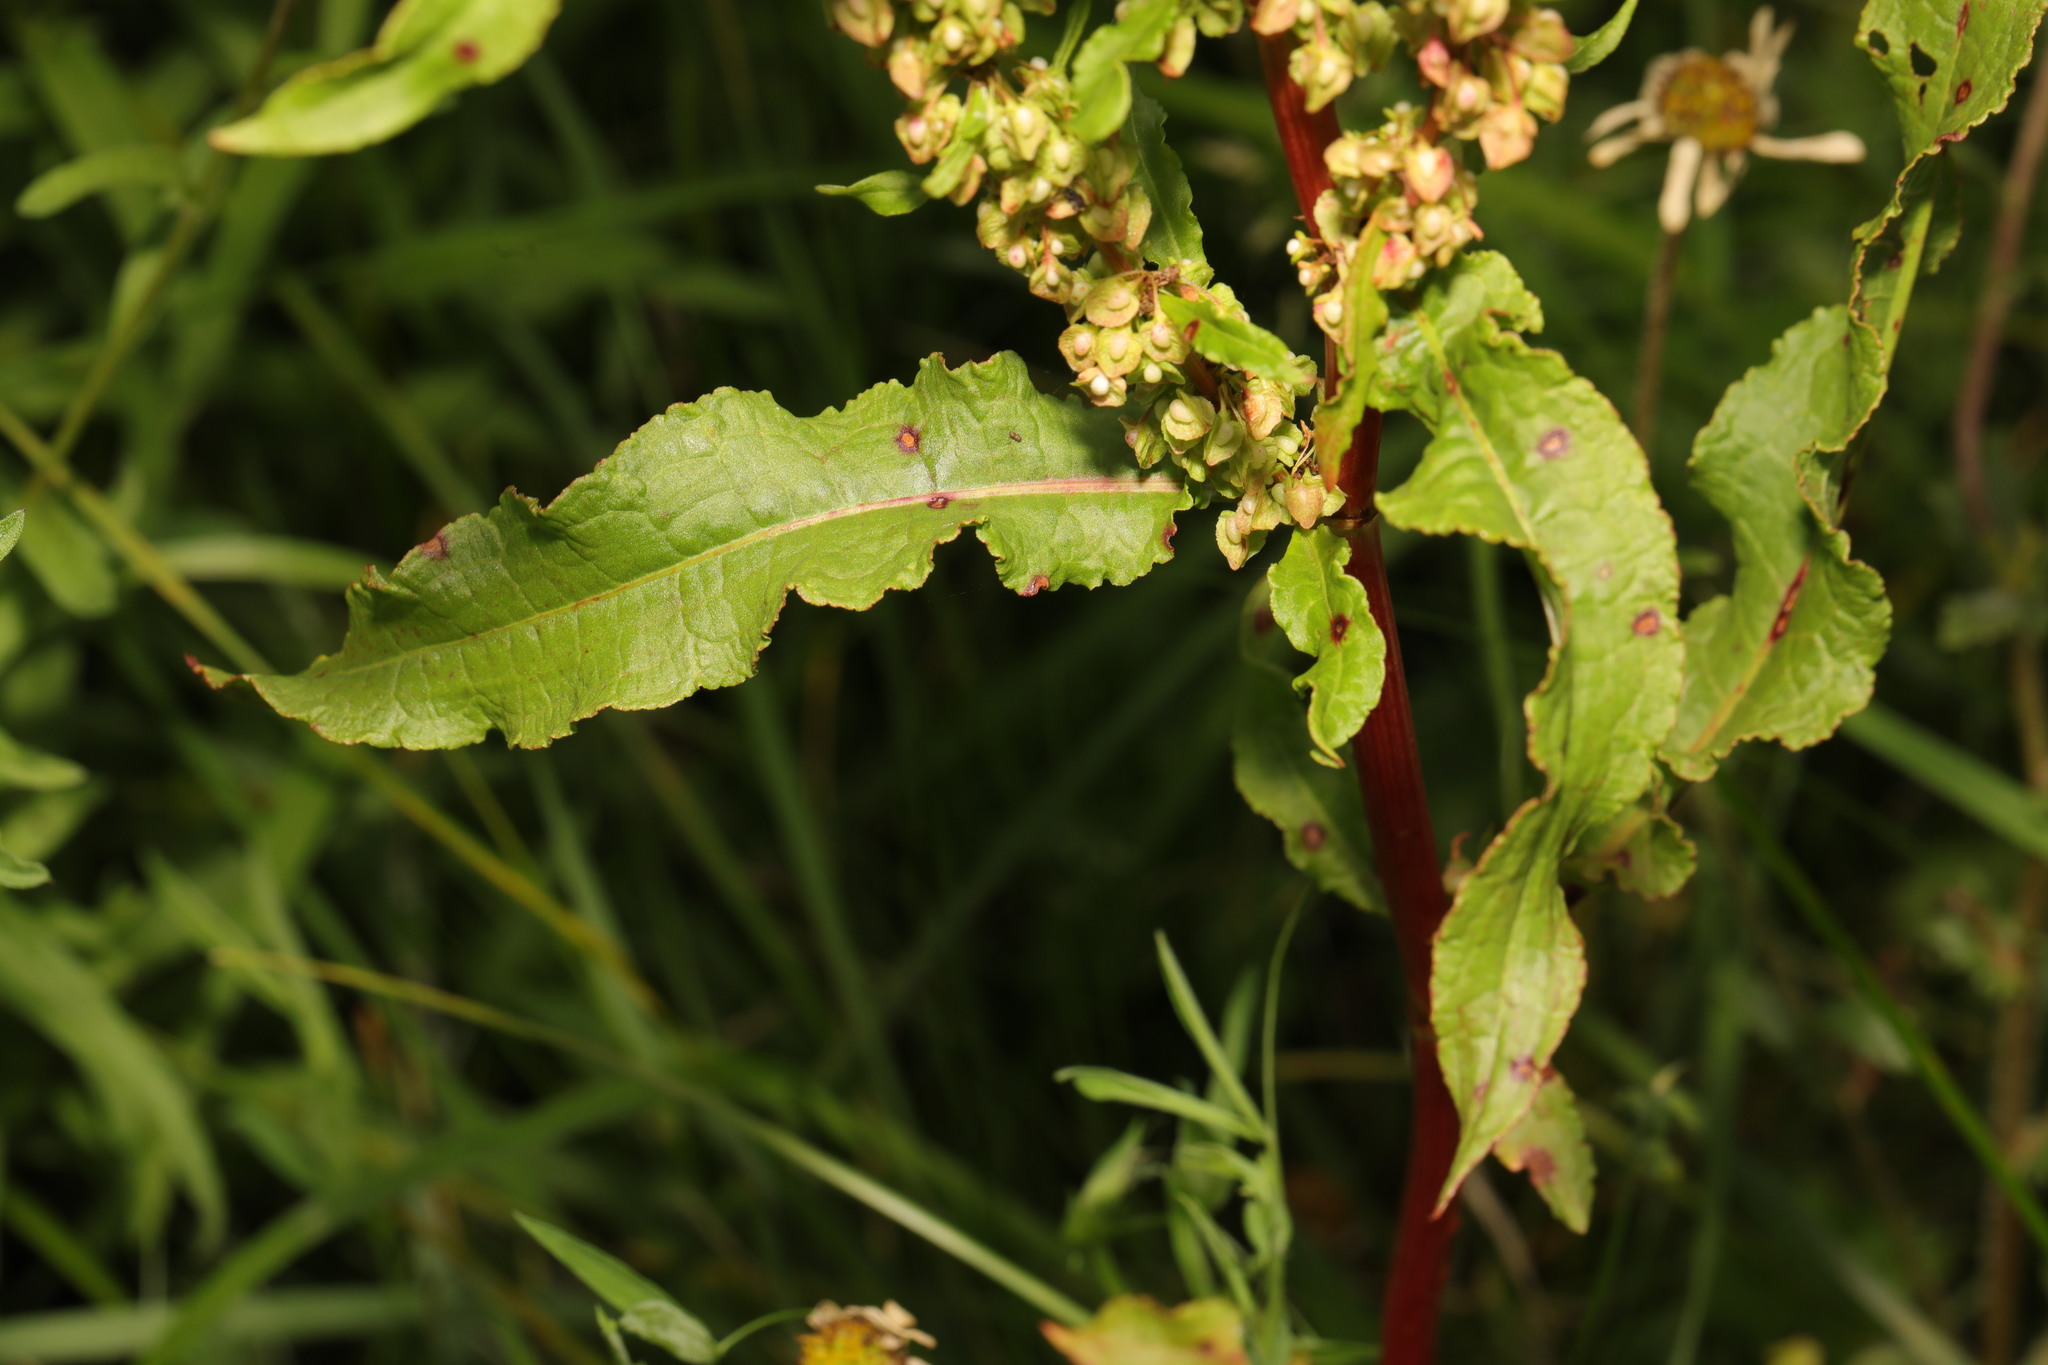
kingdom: Plantae
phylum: Tracheophyta
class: Magnoliopsida
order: Caryophyllales
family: Polygonaceae
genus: Rumex
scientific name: Rumex crispus
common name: Curled dock
